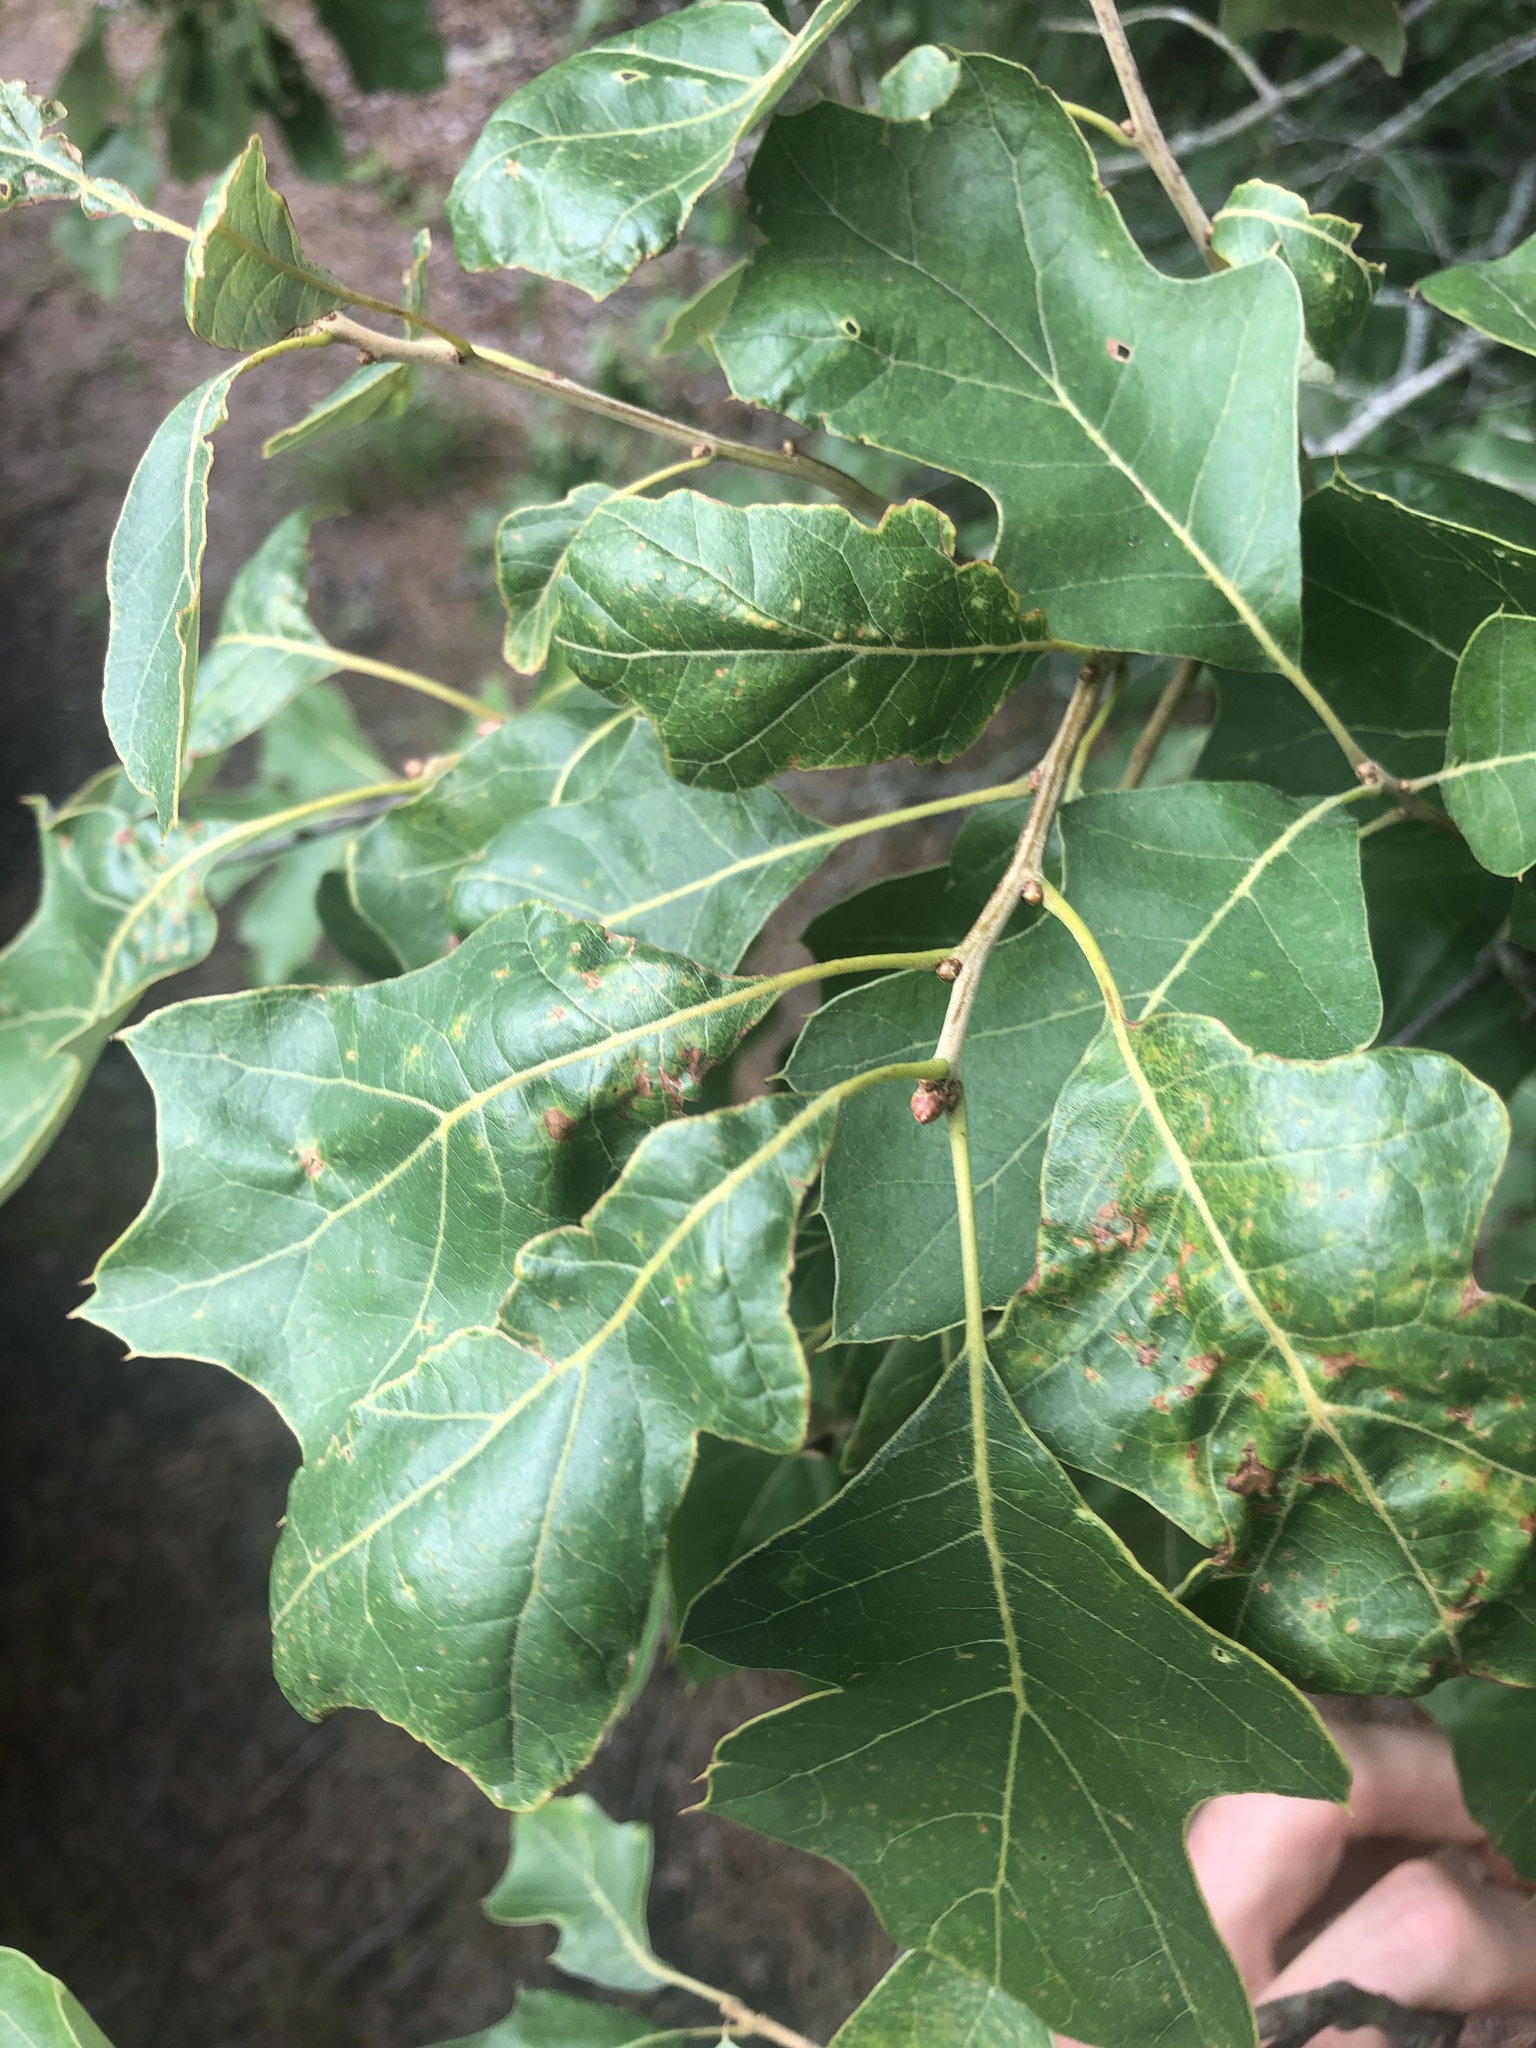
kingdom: Plantae
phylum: Tracheophyta
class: Magnoliopsida
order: Fagales
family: Fagaceae
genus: Quercus
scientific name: Quercus ilicifolia
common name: Bear oak
